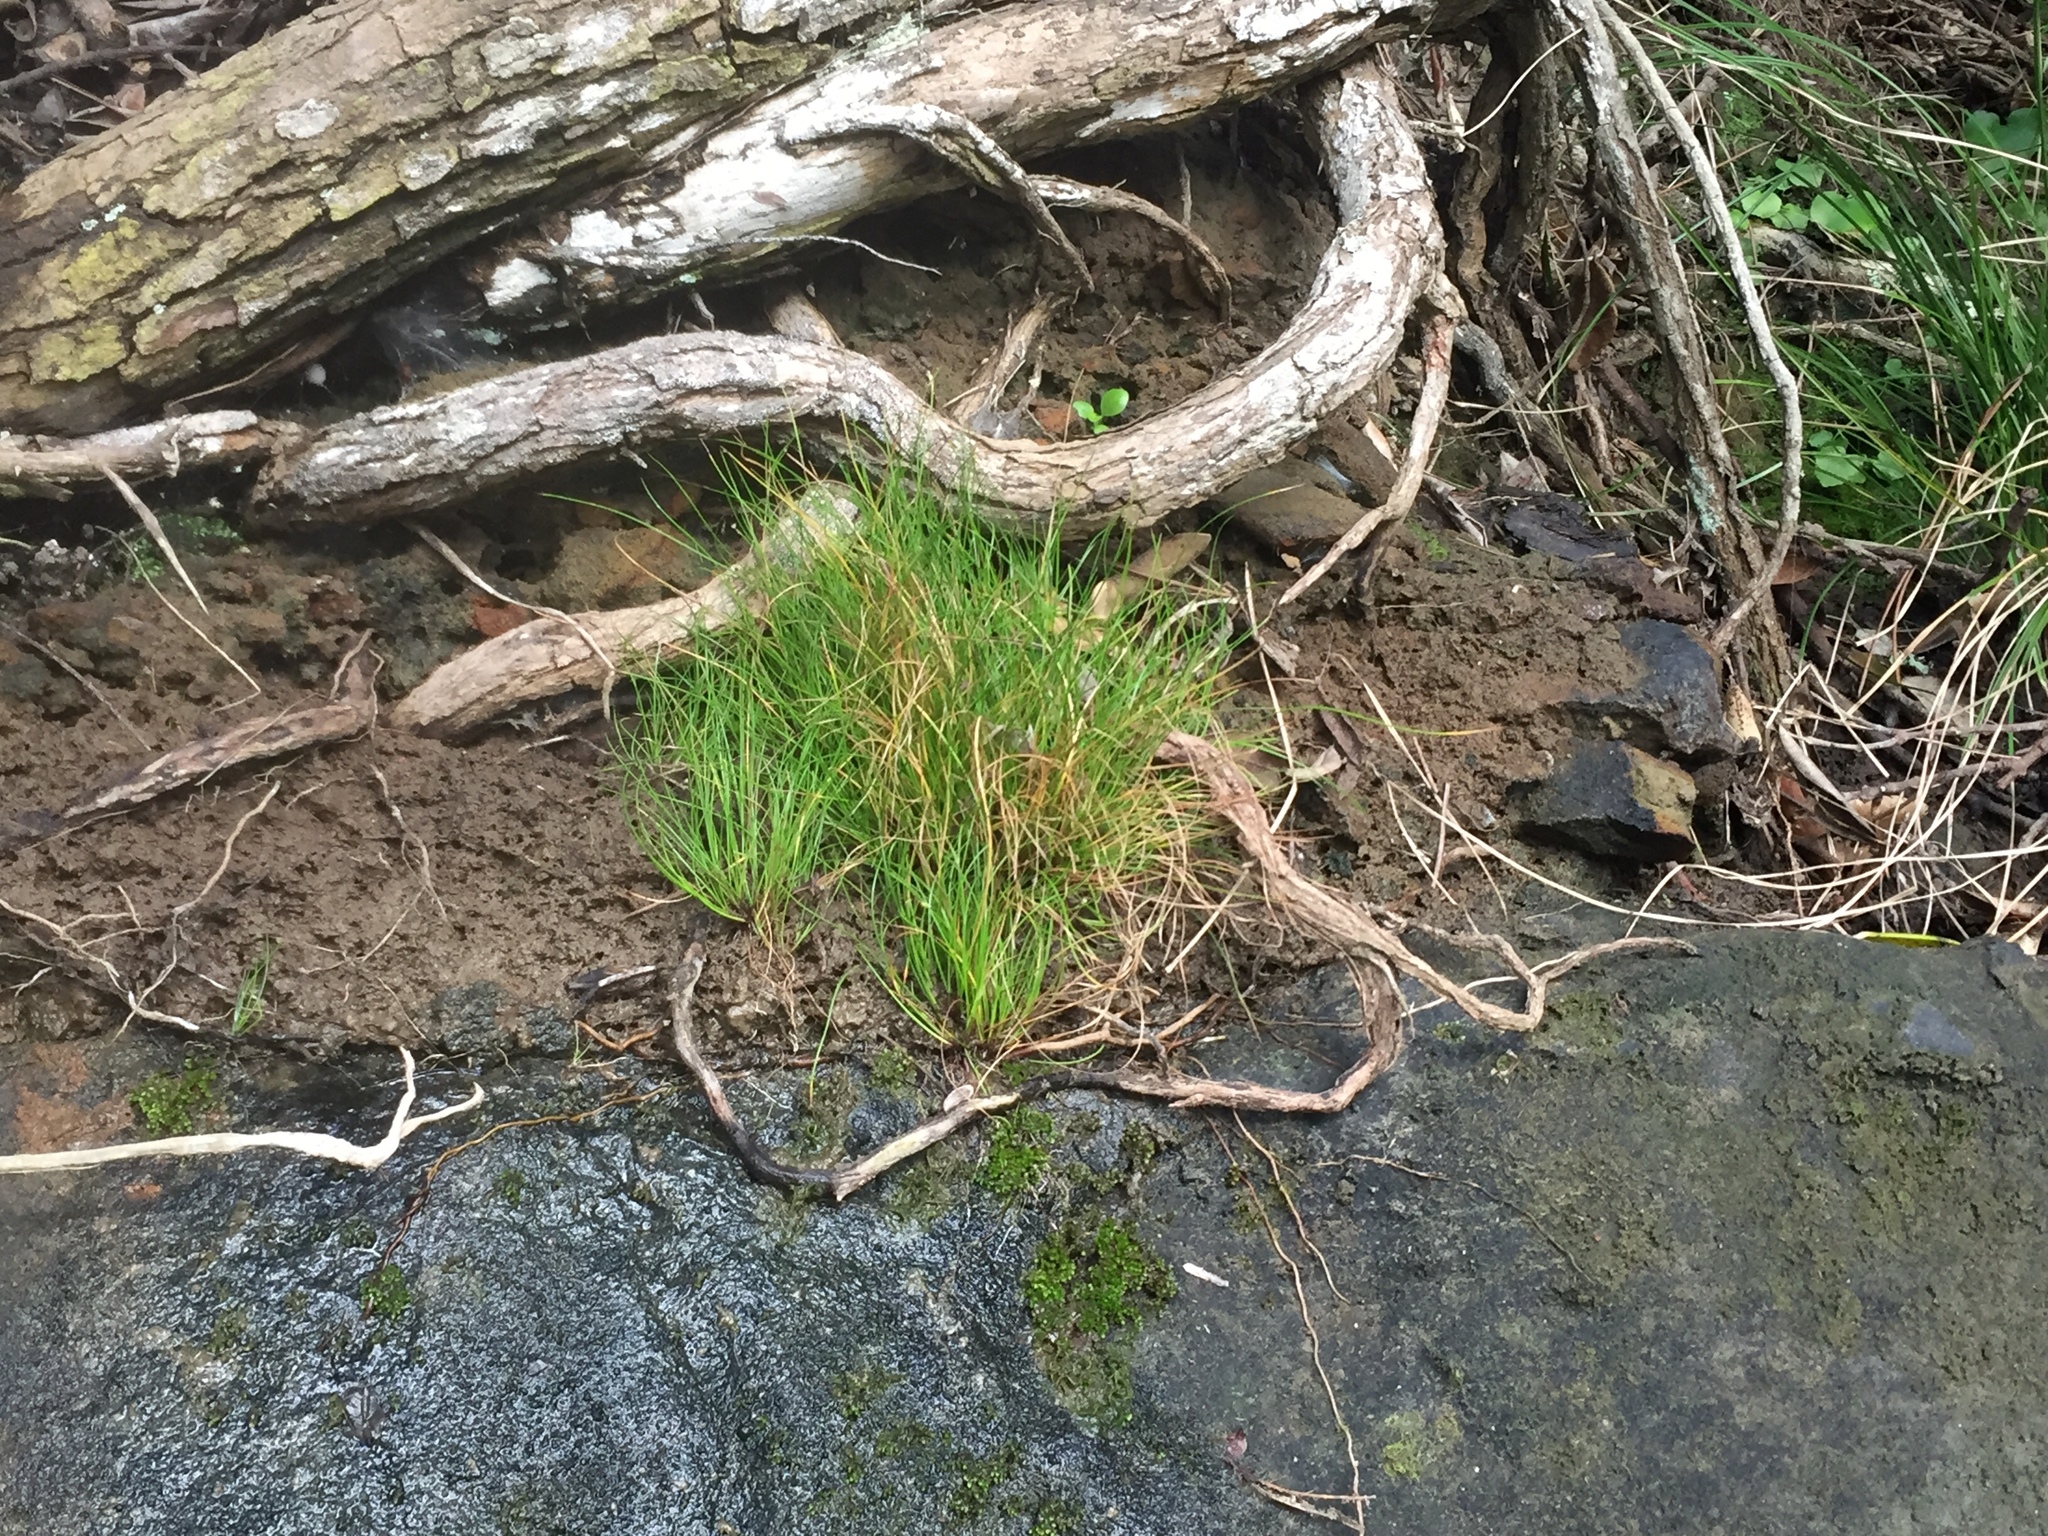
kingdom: Plantae
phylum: Tracheophyta
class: Liliopsida
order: Poales
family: Cyperaceae
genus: Isolepis
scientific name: Isolepis cernua
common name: Slender club-rush
